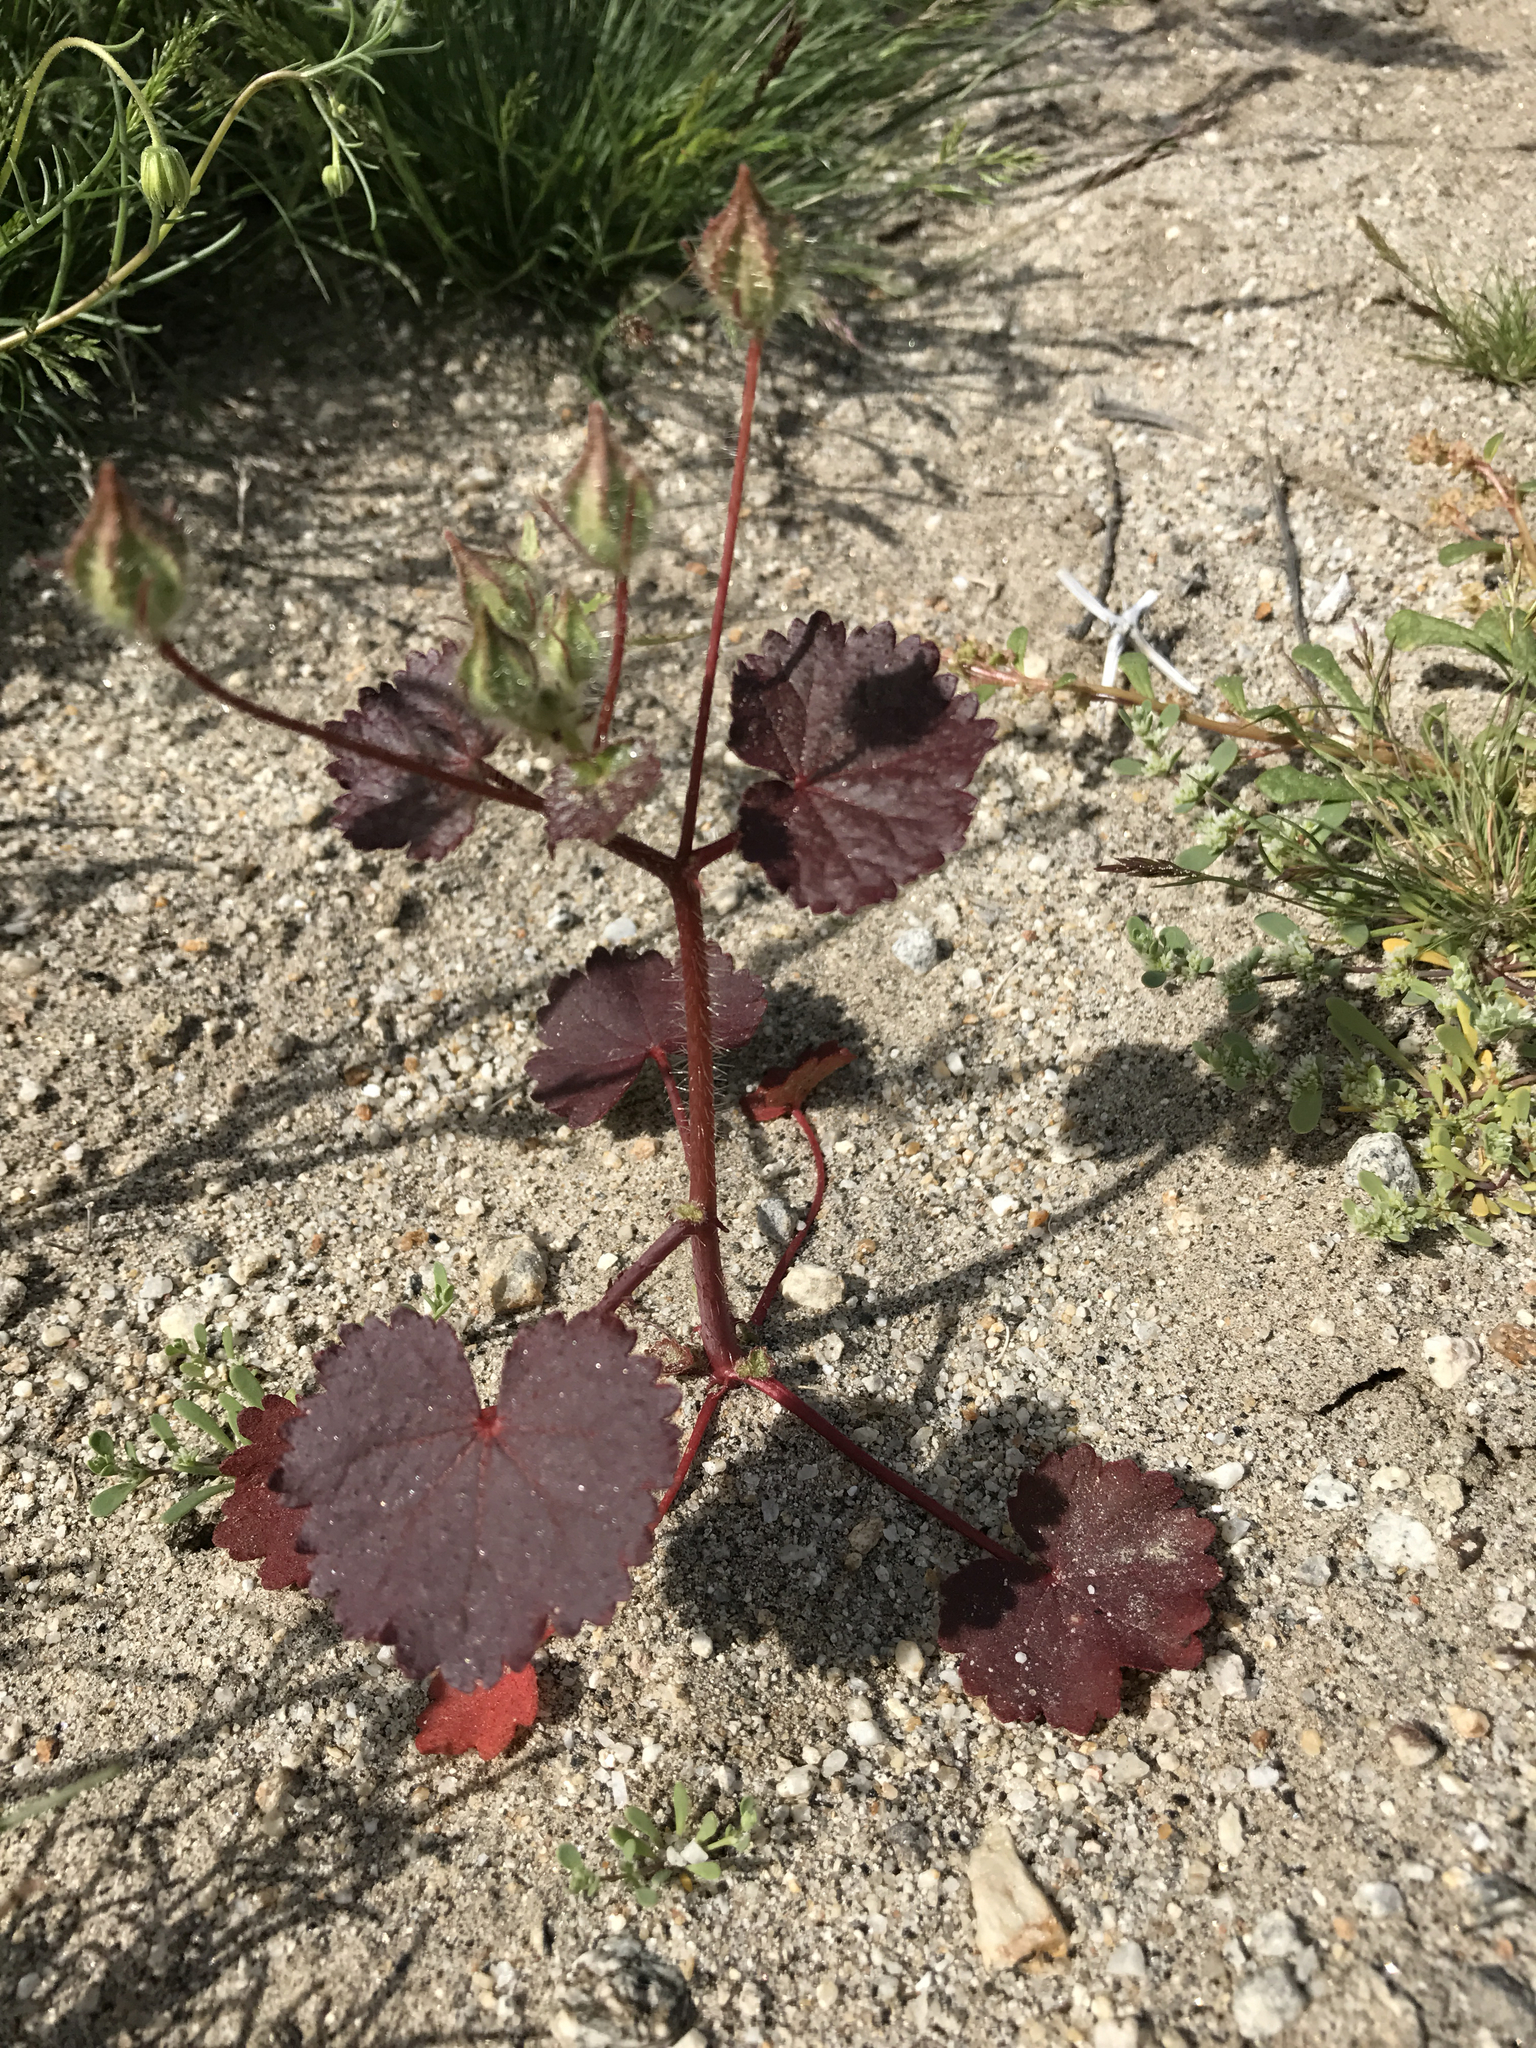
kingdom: Plantae
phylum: Tracheophyta
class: Magnoliopsida
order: Malvales
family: Malvaceae
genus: Eremalche
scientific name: Eremalche rotundifolia
